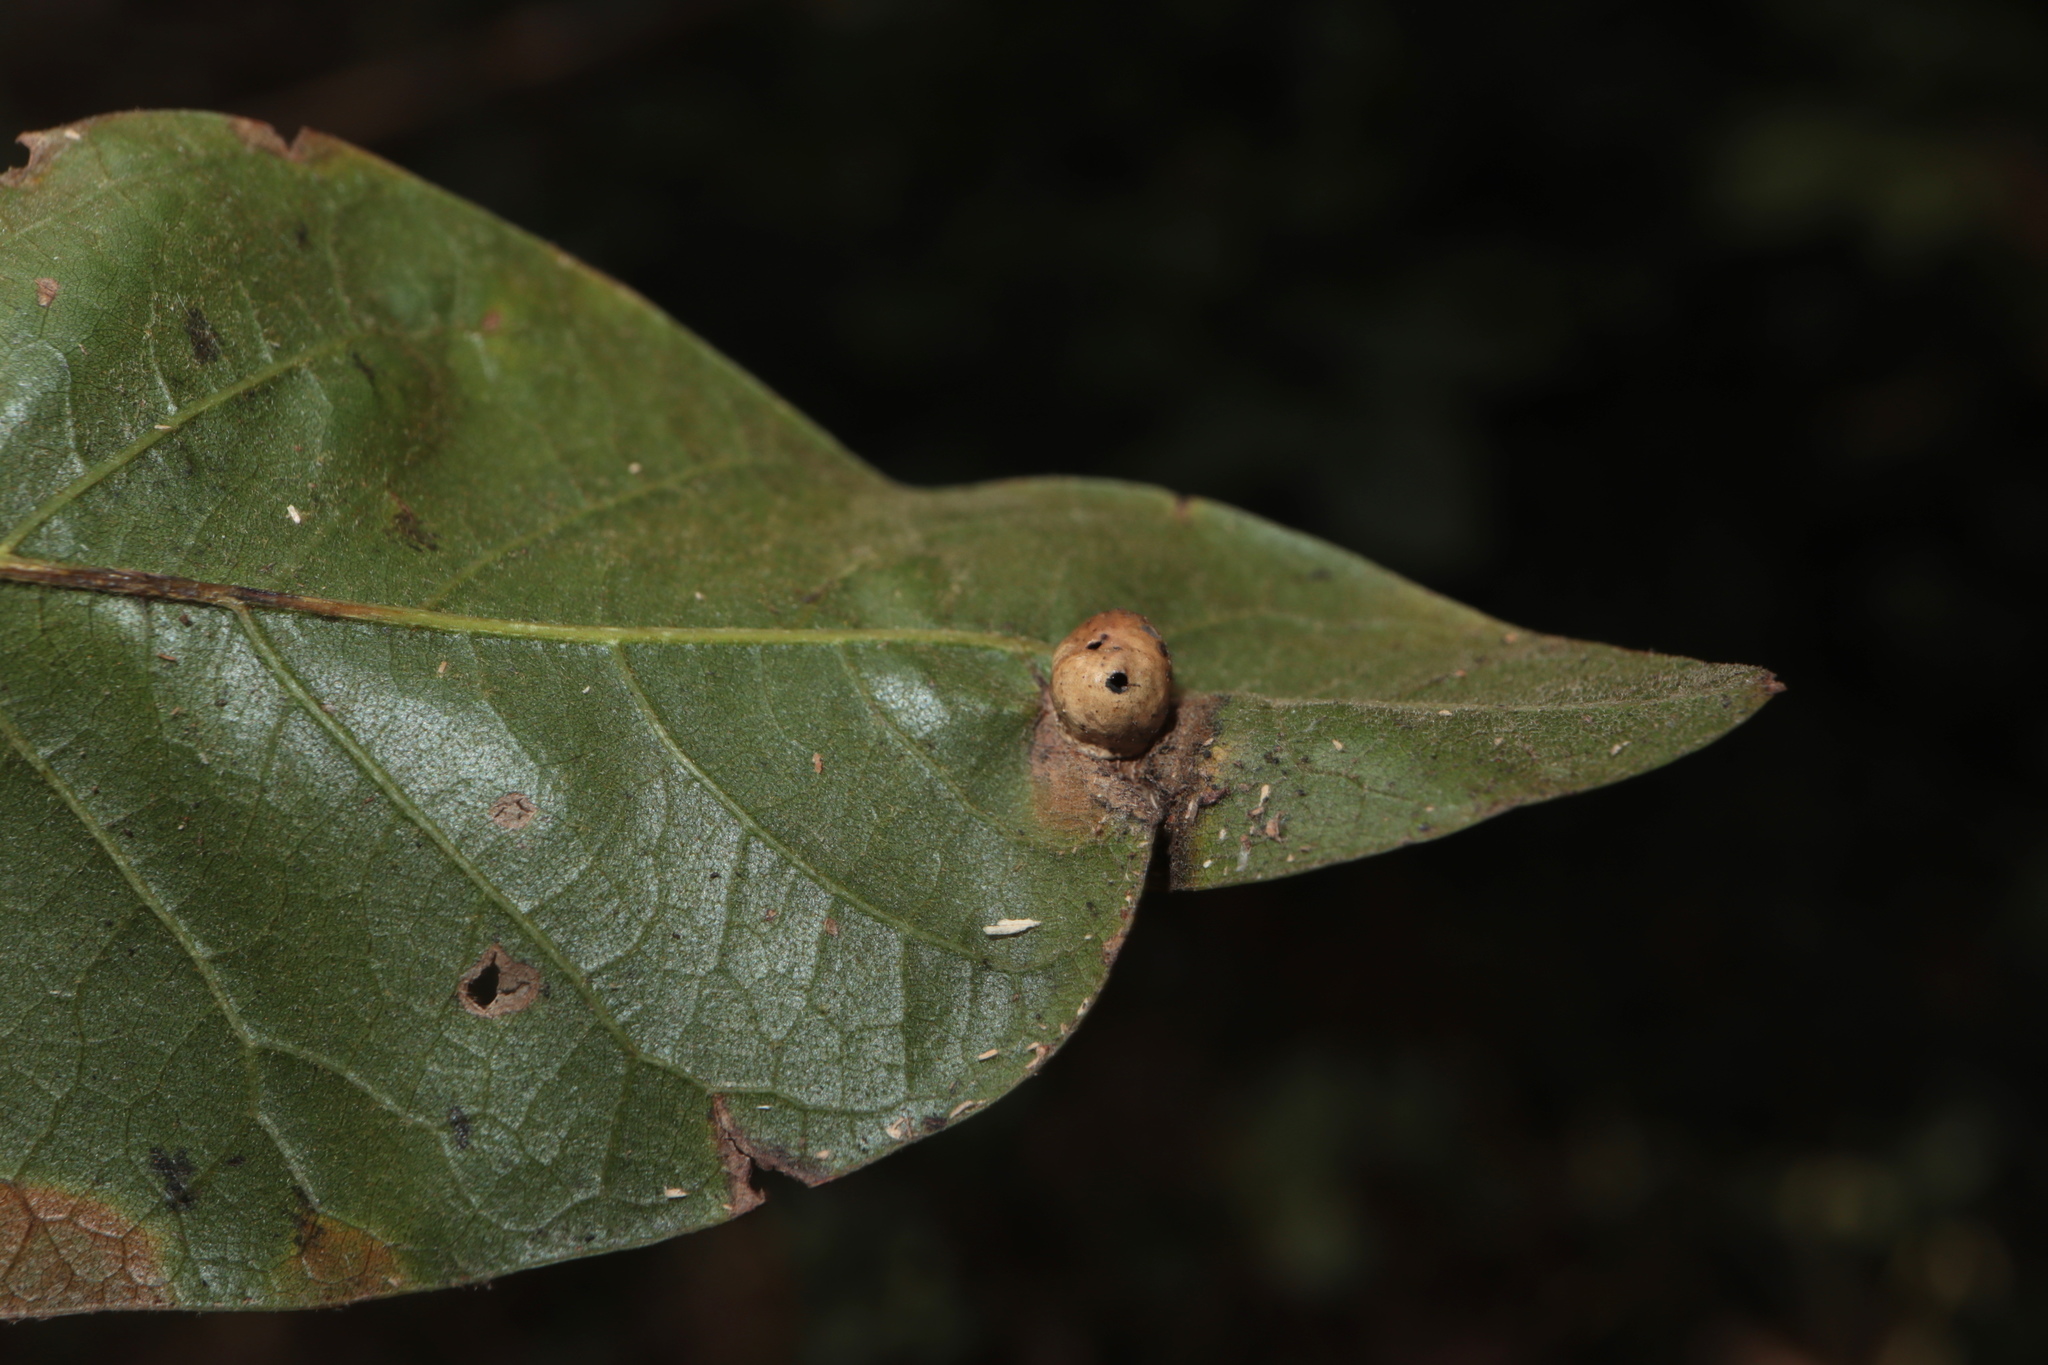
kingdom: Animalia
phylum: Arthropoda
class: Insecta
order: Hymenoptera
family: Cynipidae
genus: Amphibolips
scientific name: Amphibolips
